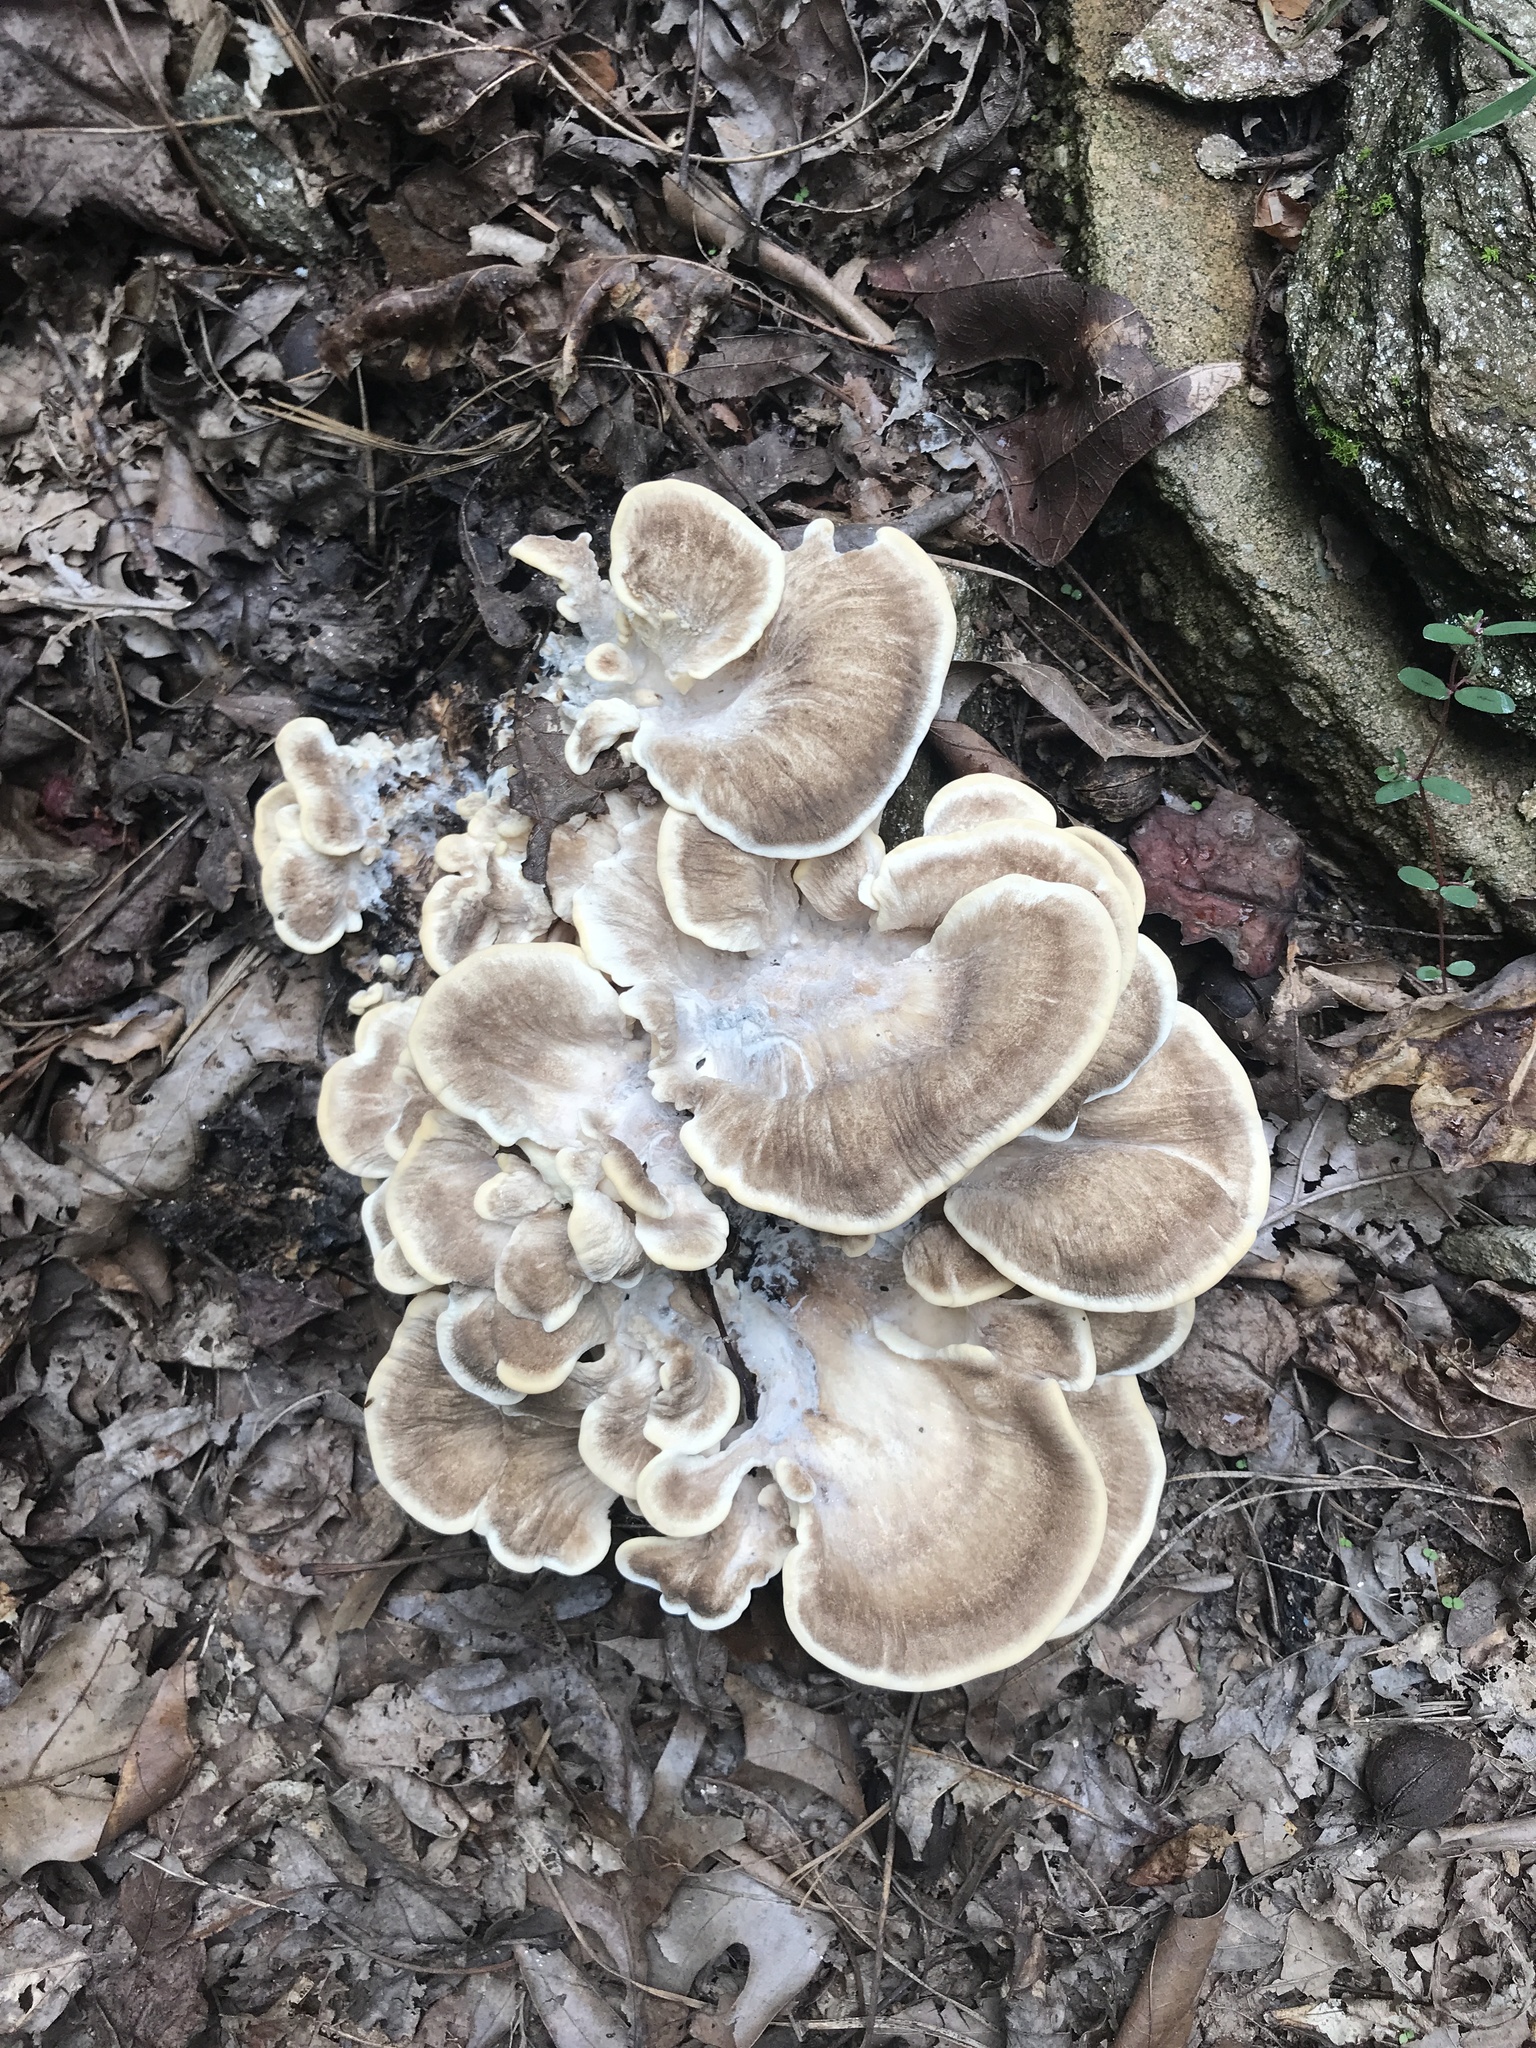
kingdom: Fungi
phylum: Basidiomycota
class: Agaricomycetes
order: Polyporales
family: Meripilaceae
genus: Meripilus
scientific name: Meripilus sumstinei
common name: Black-staining polypore
